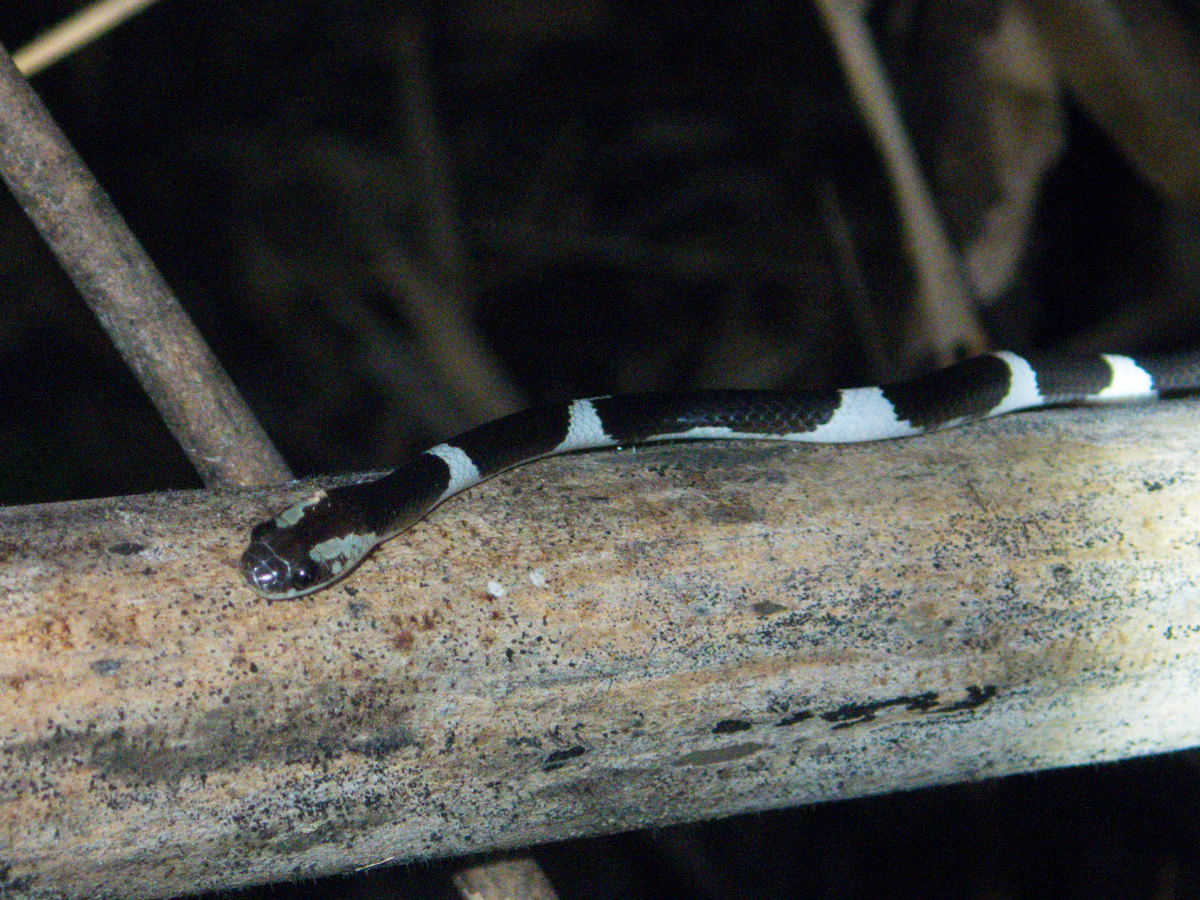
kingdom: Animalia
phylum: Chordata
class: Squamata
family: Colubridae
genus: Lycodon
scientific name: Lycodon davisonii
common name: Blanford's bridal snake
